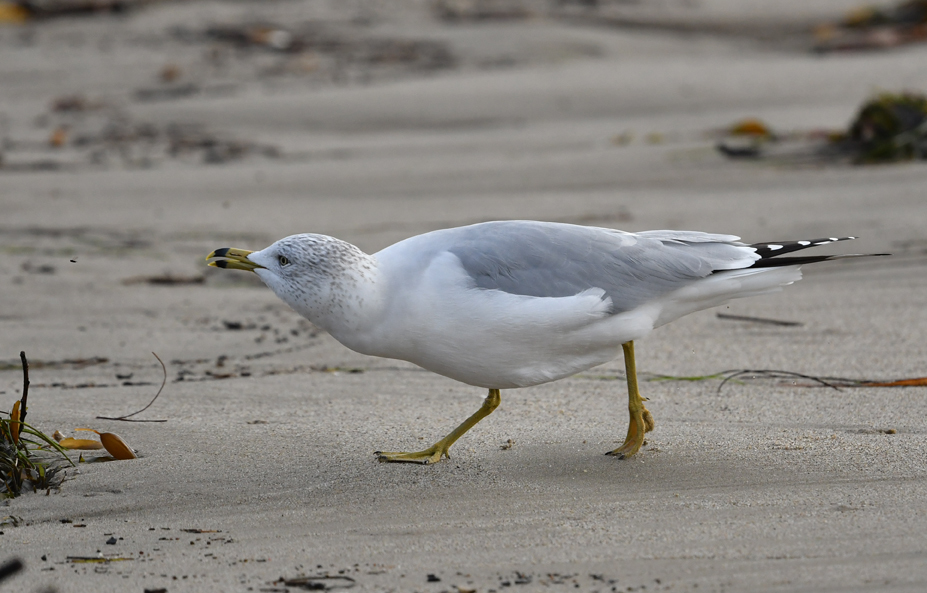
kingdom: Animalia
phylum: Chordata
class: Aves
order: Charadriiformes
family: Laridae
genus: Larus
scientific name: Larus delawarensis
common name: Ring-billed gull
